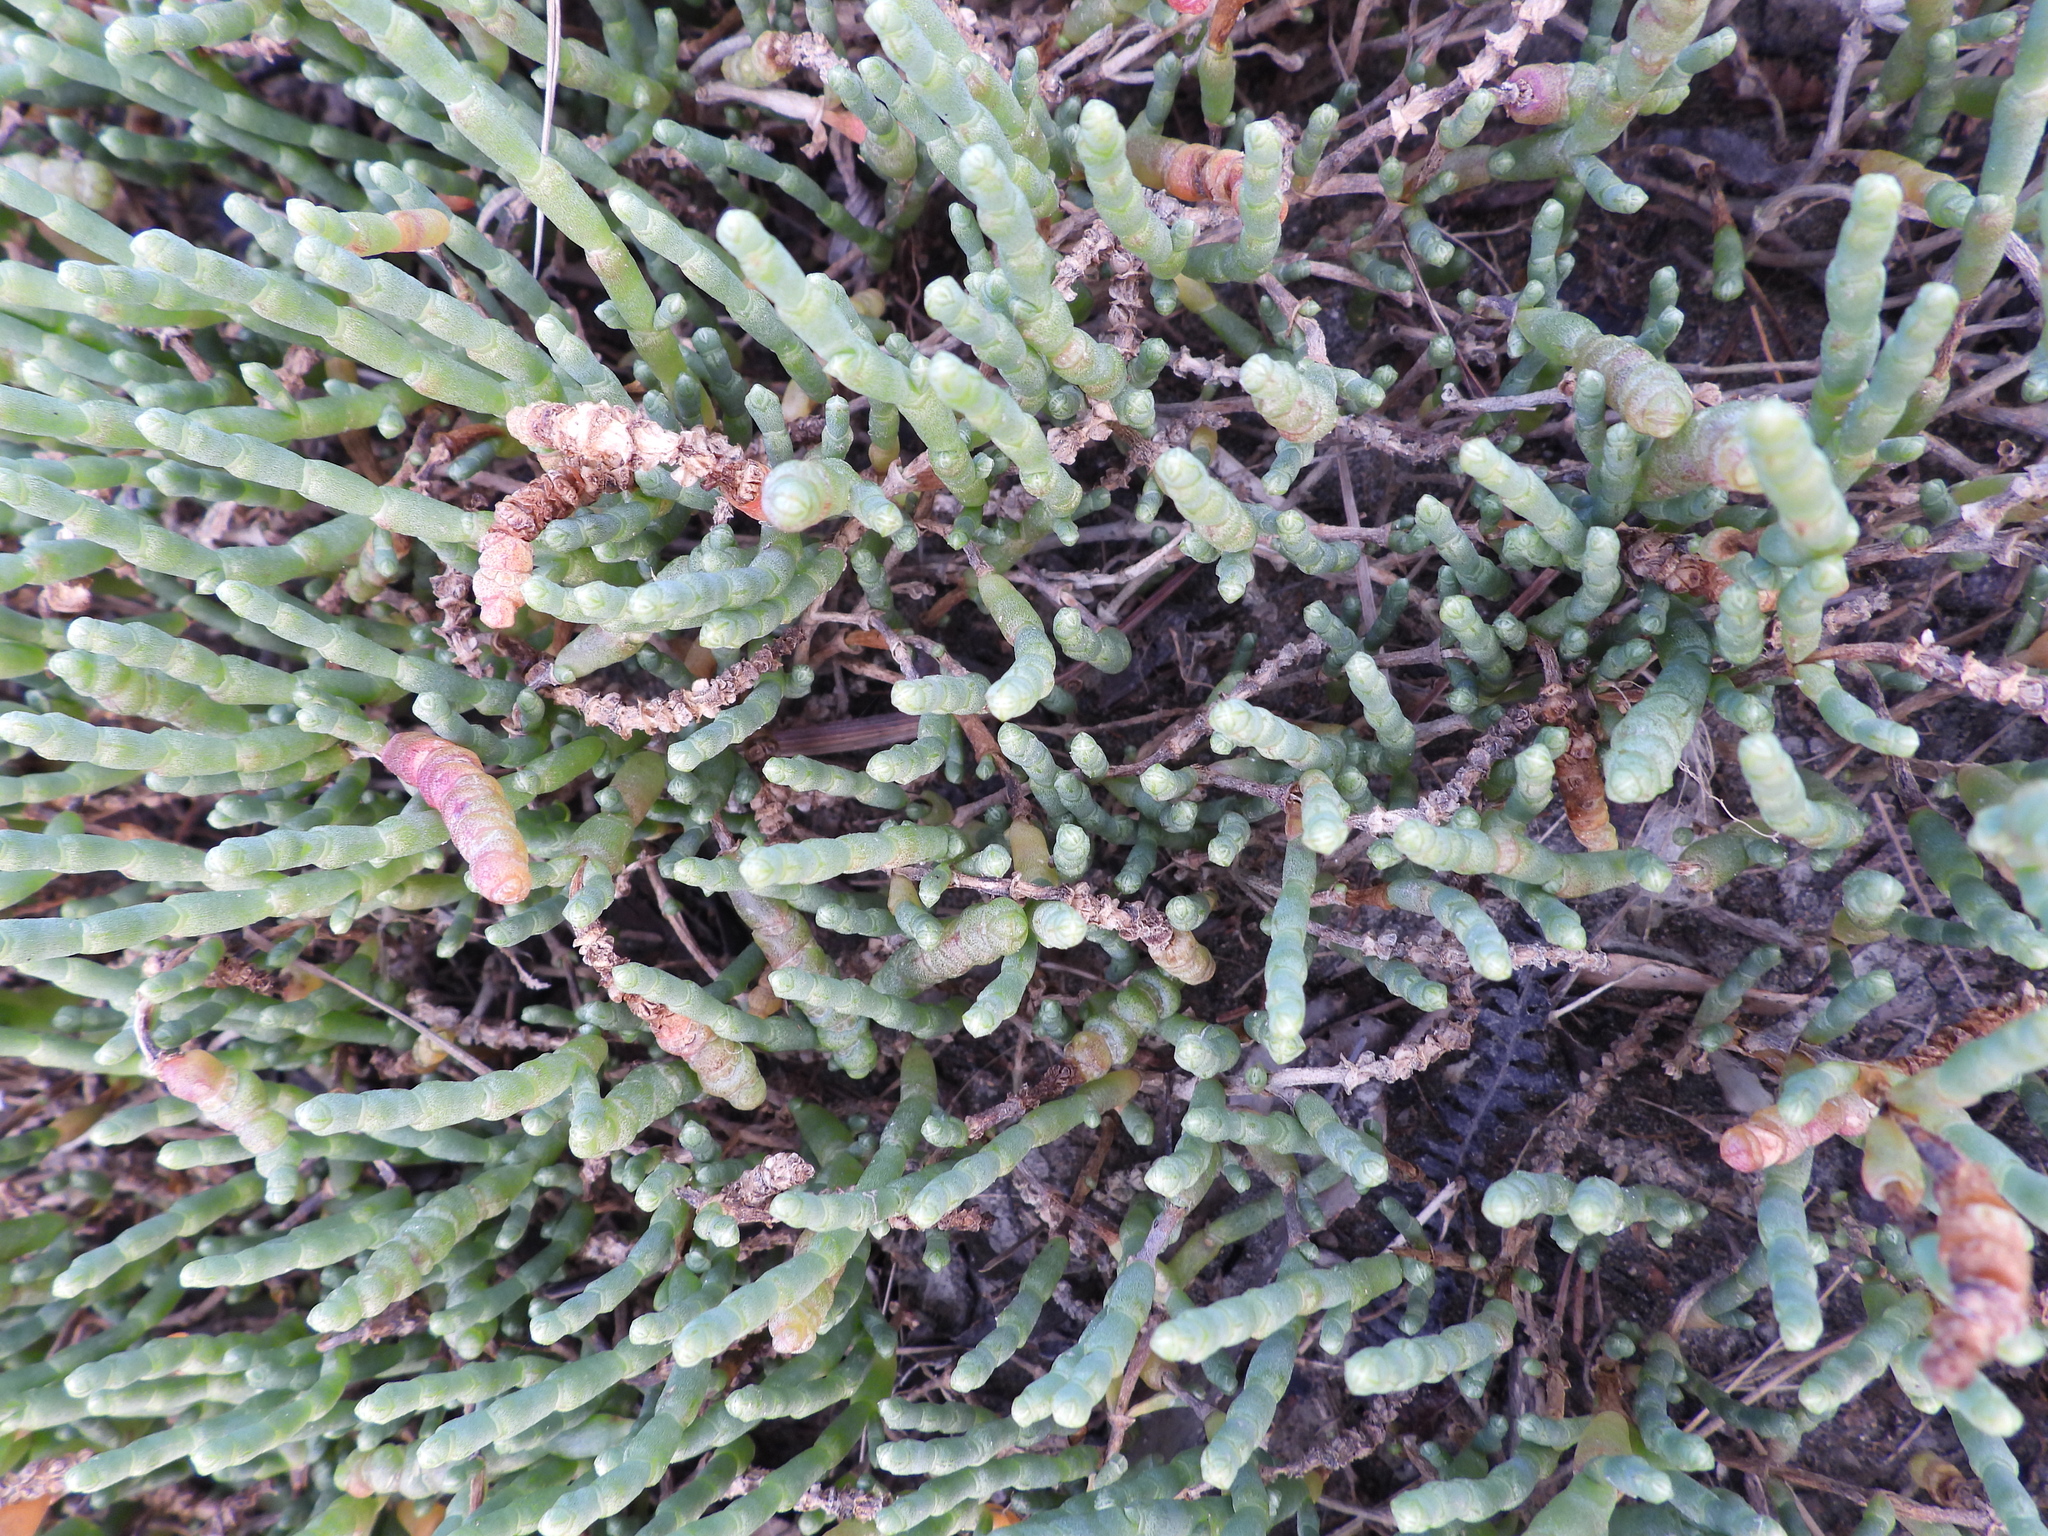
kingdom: Plantae
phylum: Tracheophyta
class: Magnoliopsida
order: Caryophyllales
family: Amaranthaceae
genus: Salicornia
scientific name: Salicornia quinqueflora
